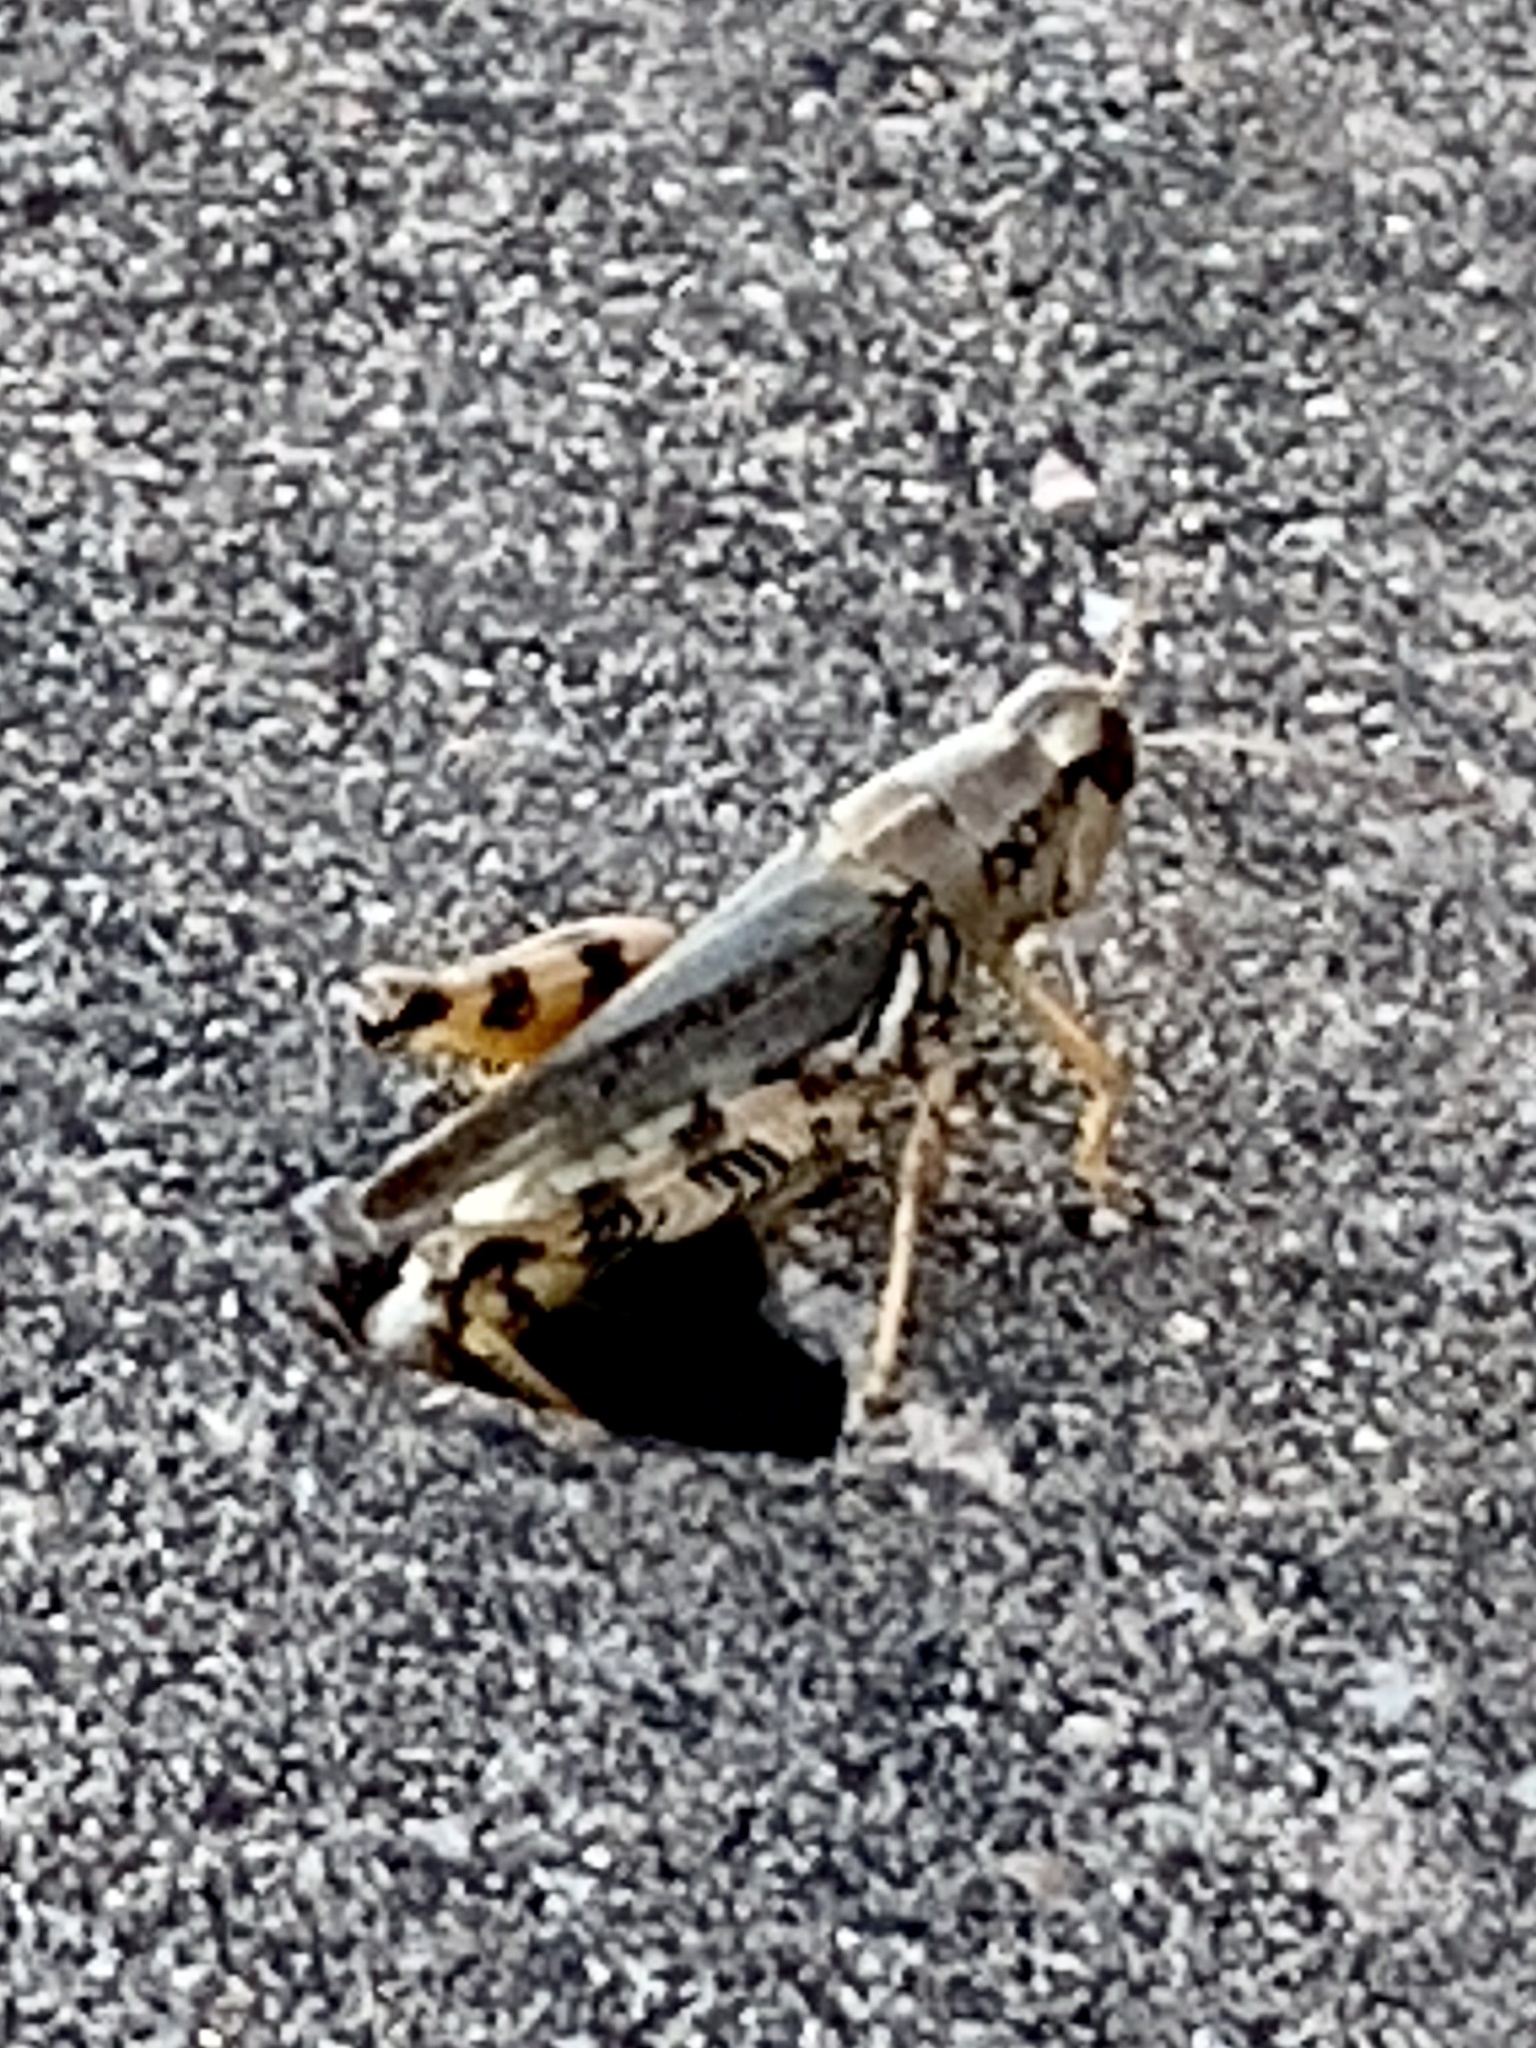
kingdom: Animalia
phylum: Arthropoda
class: Insecta
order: Orthoptera
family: Acrididae
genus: Melanoplus
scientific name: Melanoplus ponderosus
